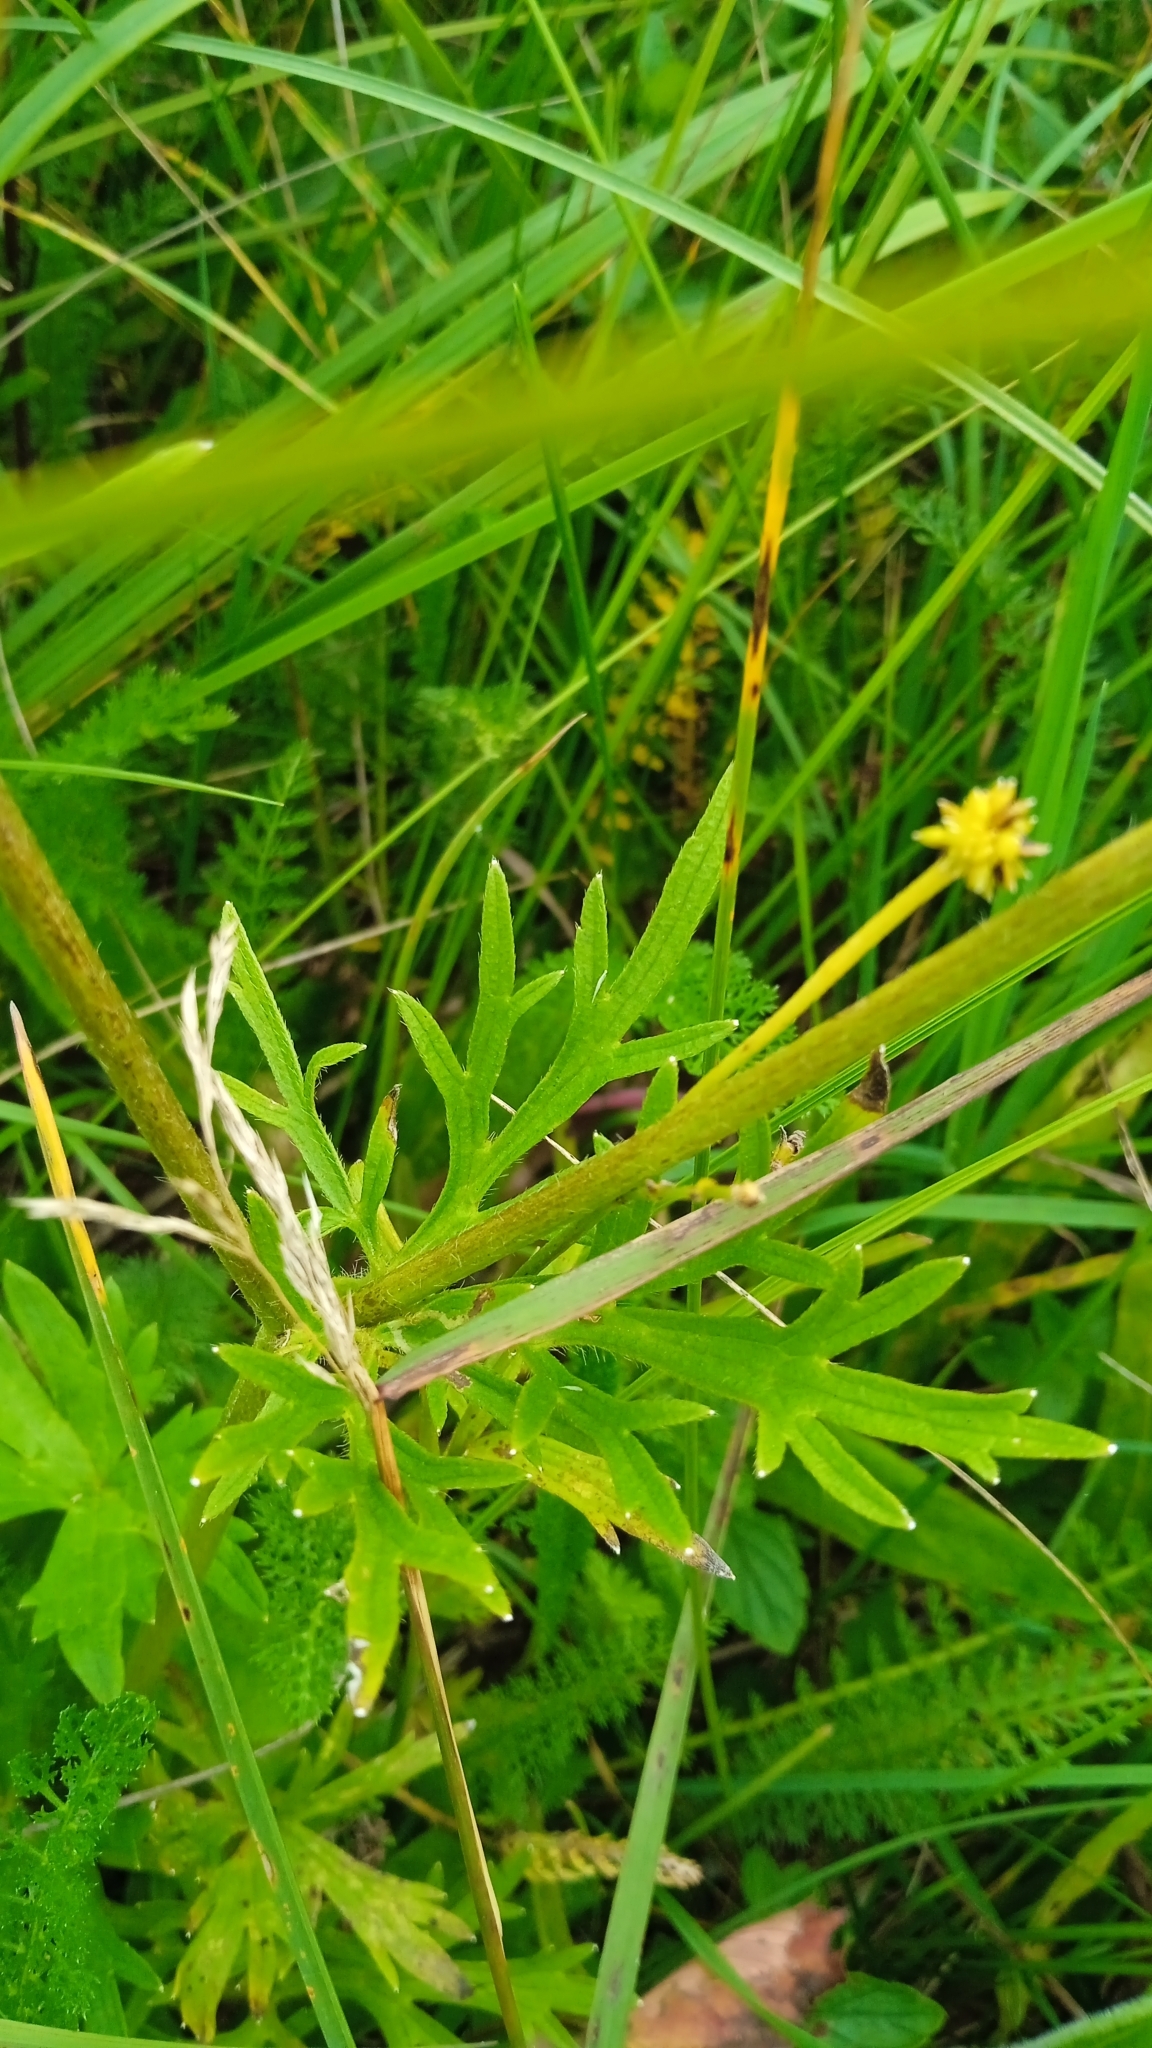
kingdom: Plantae
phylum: Tracheophyta
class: Magnoliopsida
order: Ranunculales
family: Ranunculaceae
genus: Ranunculus
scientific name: Ranunculus polyanthemos
